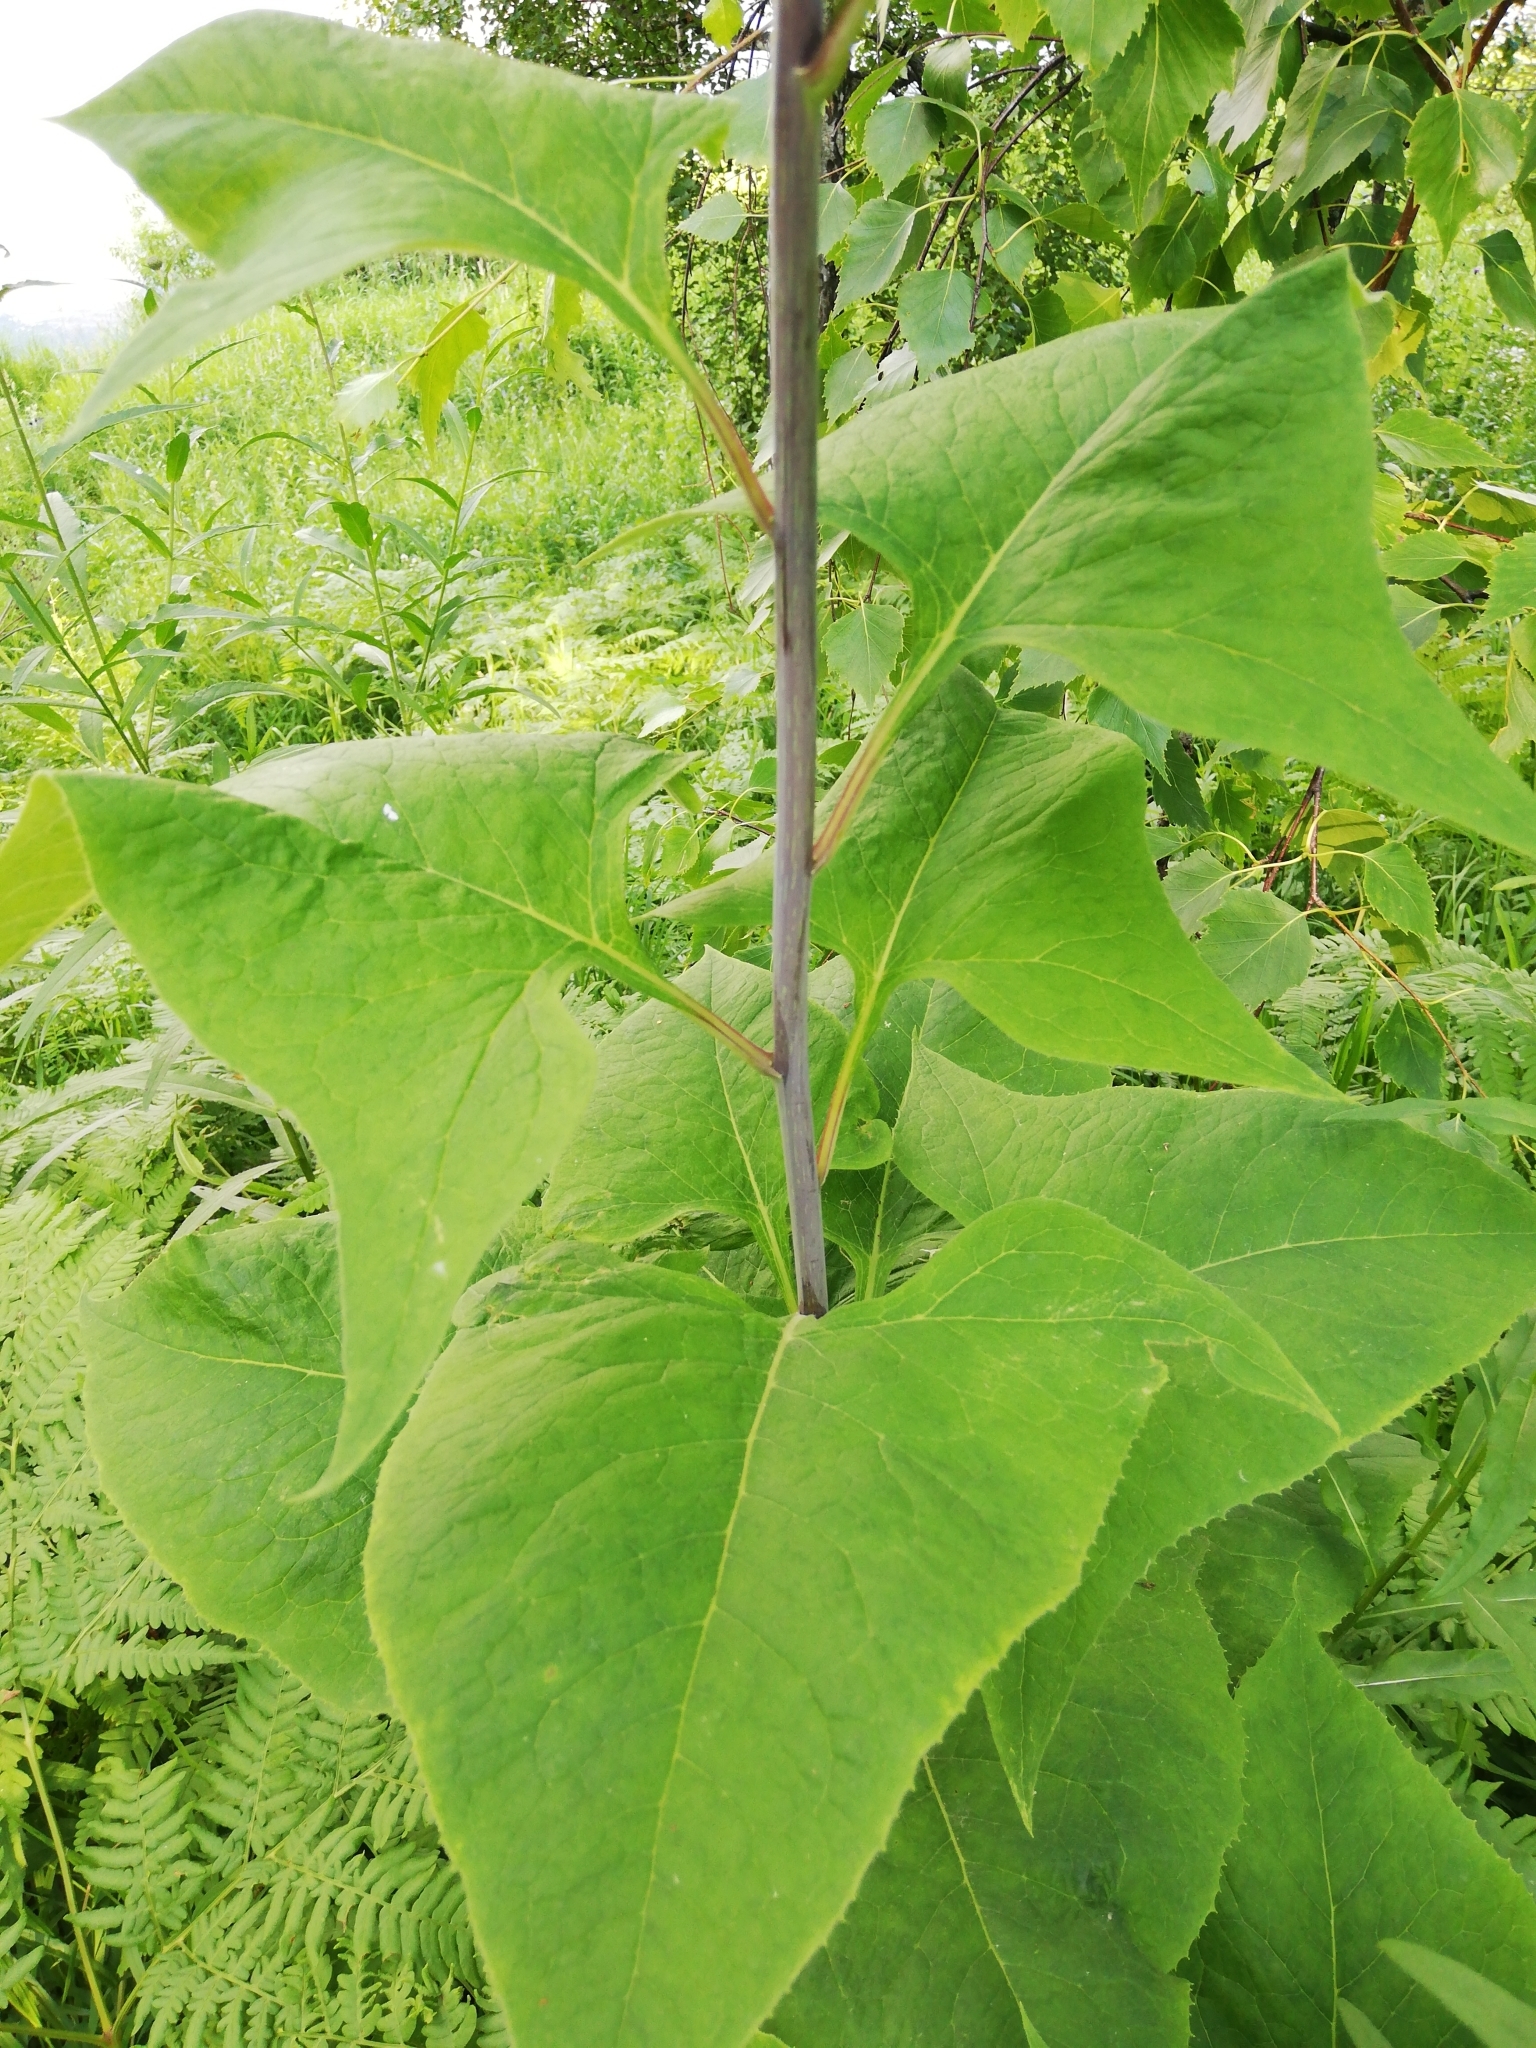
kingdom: Plantae
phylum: Tracheophyta
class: Magnoliopsida
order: Asterales
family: Asteraceae
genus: Parasenecio
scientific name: Parasenecio hastatus
